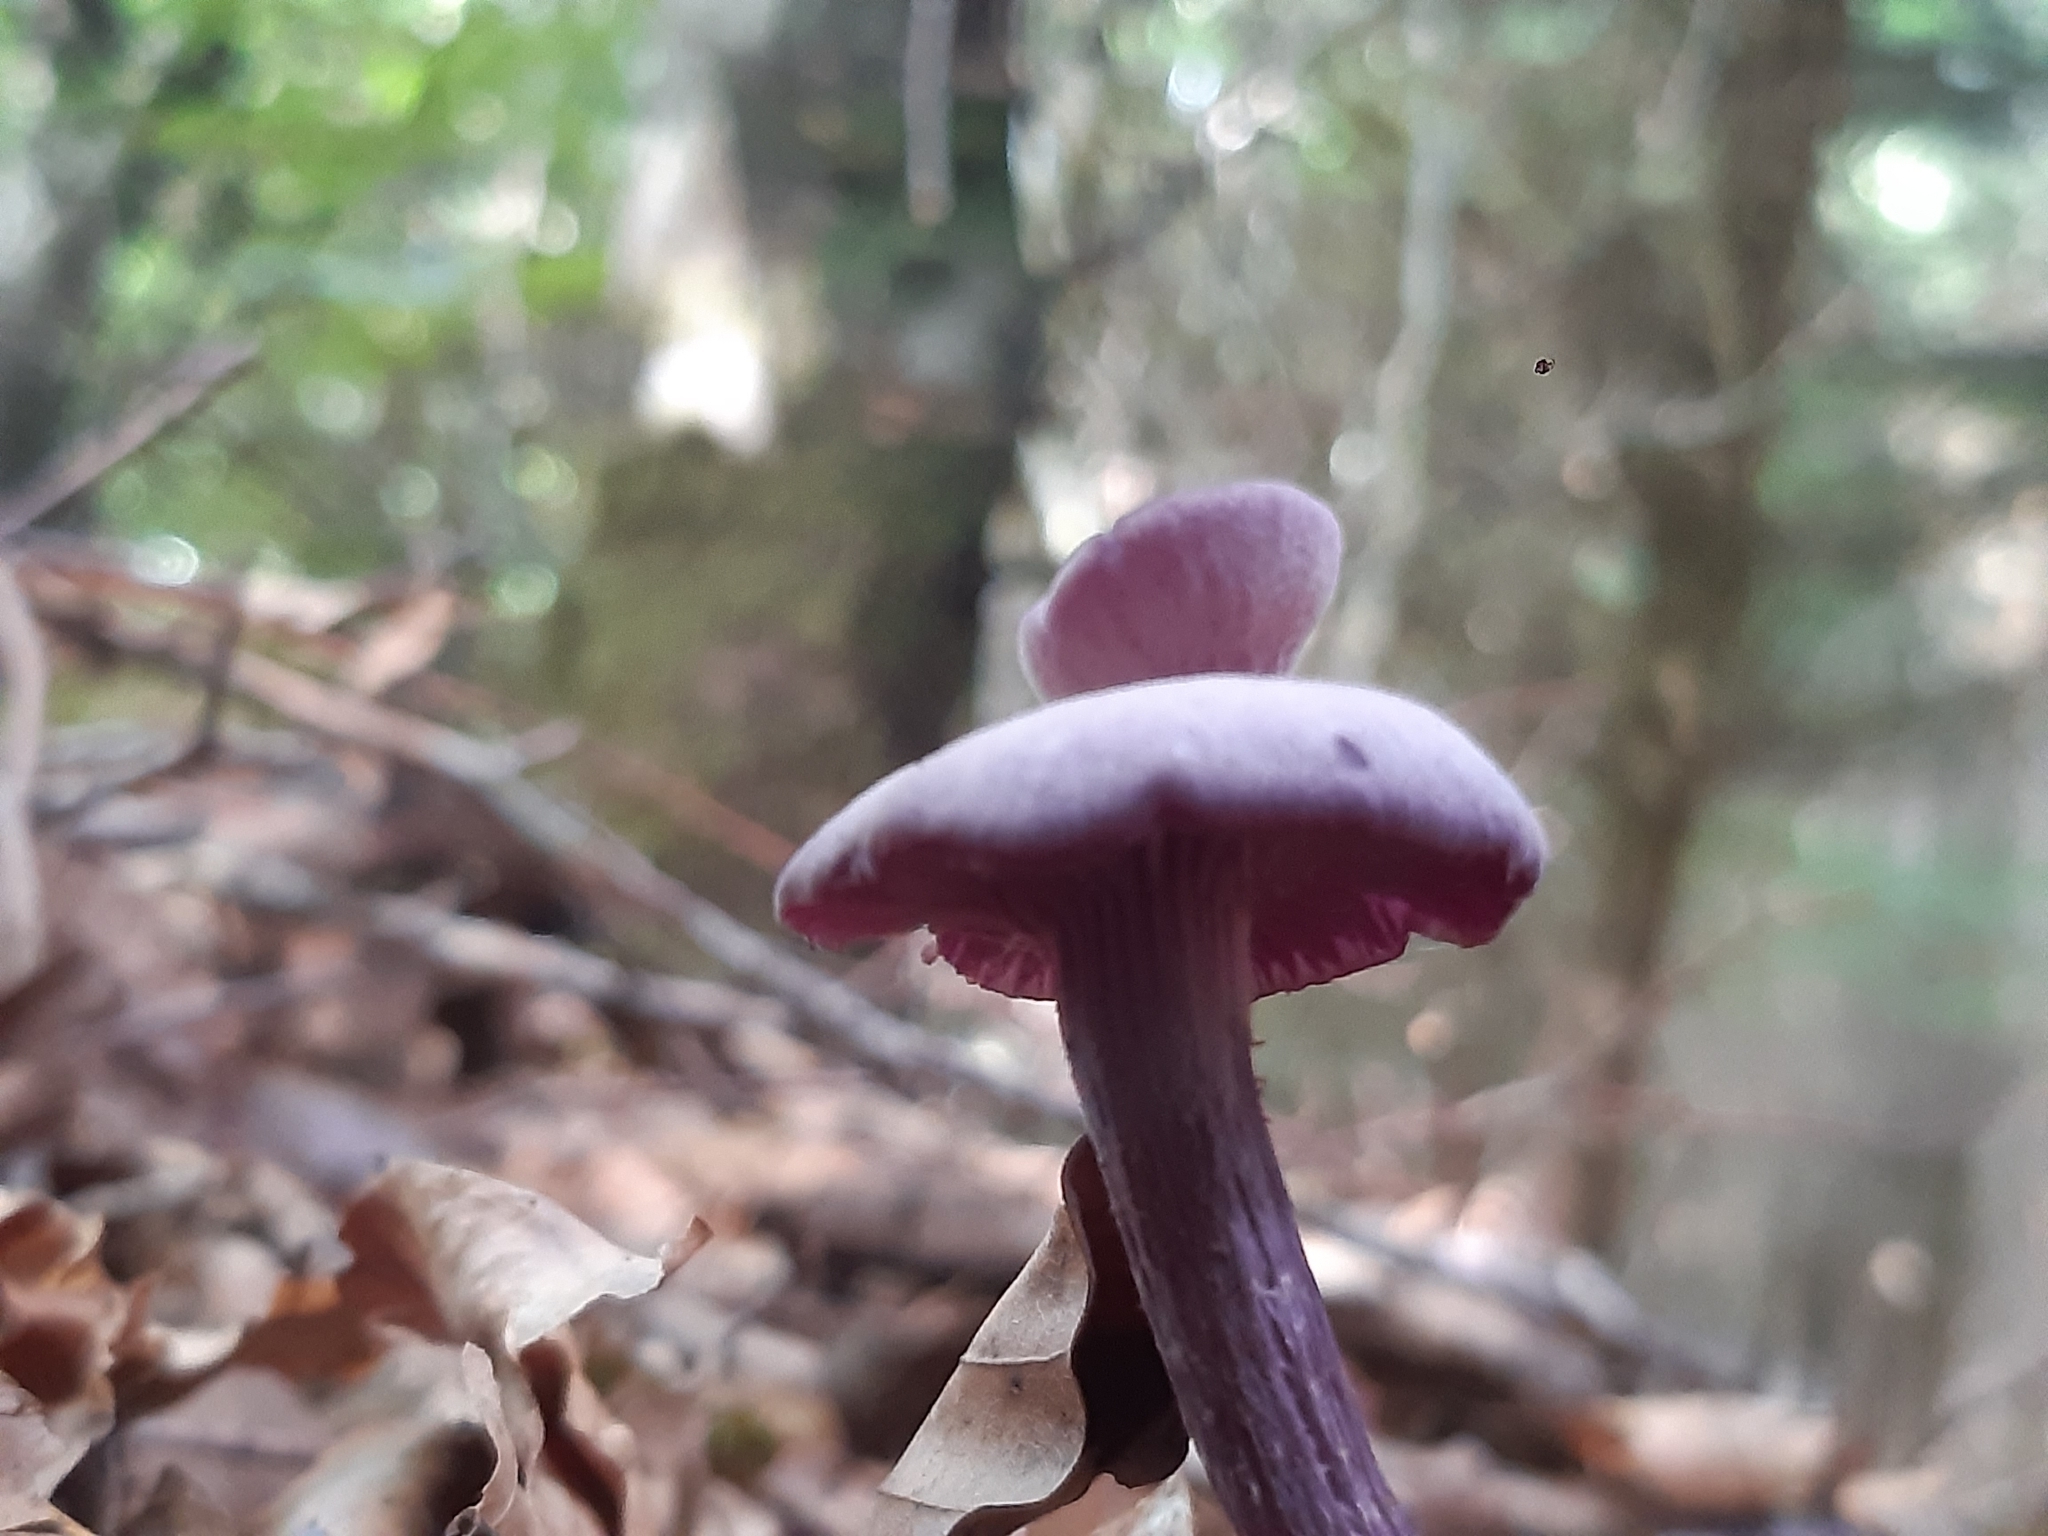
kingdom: Fungi
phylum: Basidiomycota
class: Agaricomycetes
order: Agaricales
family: Hydnangiaceae
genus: Laccaria
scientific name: Laccaria amethystina
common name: Amethyst deceiver
